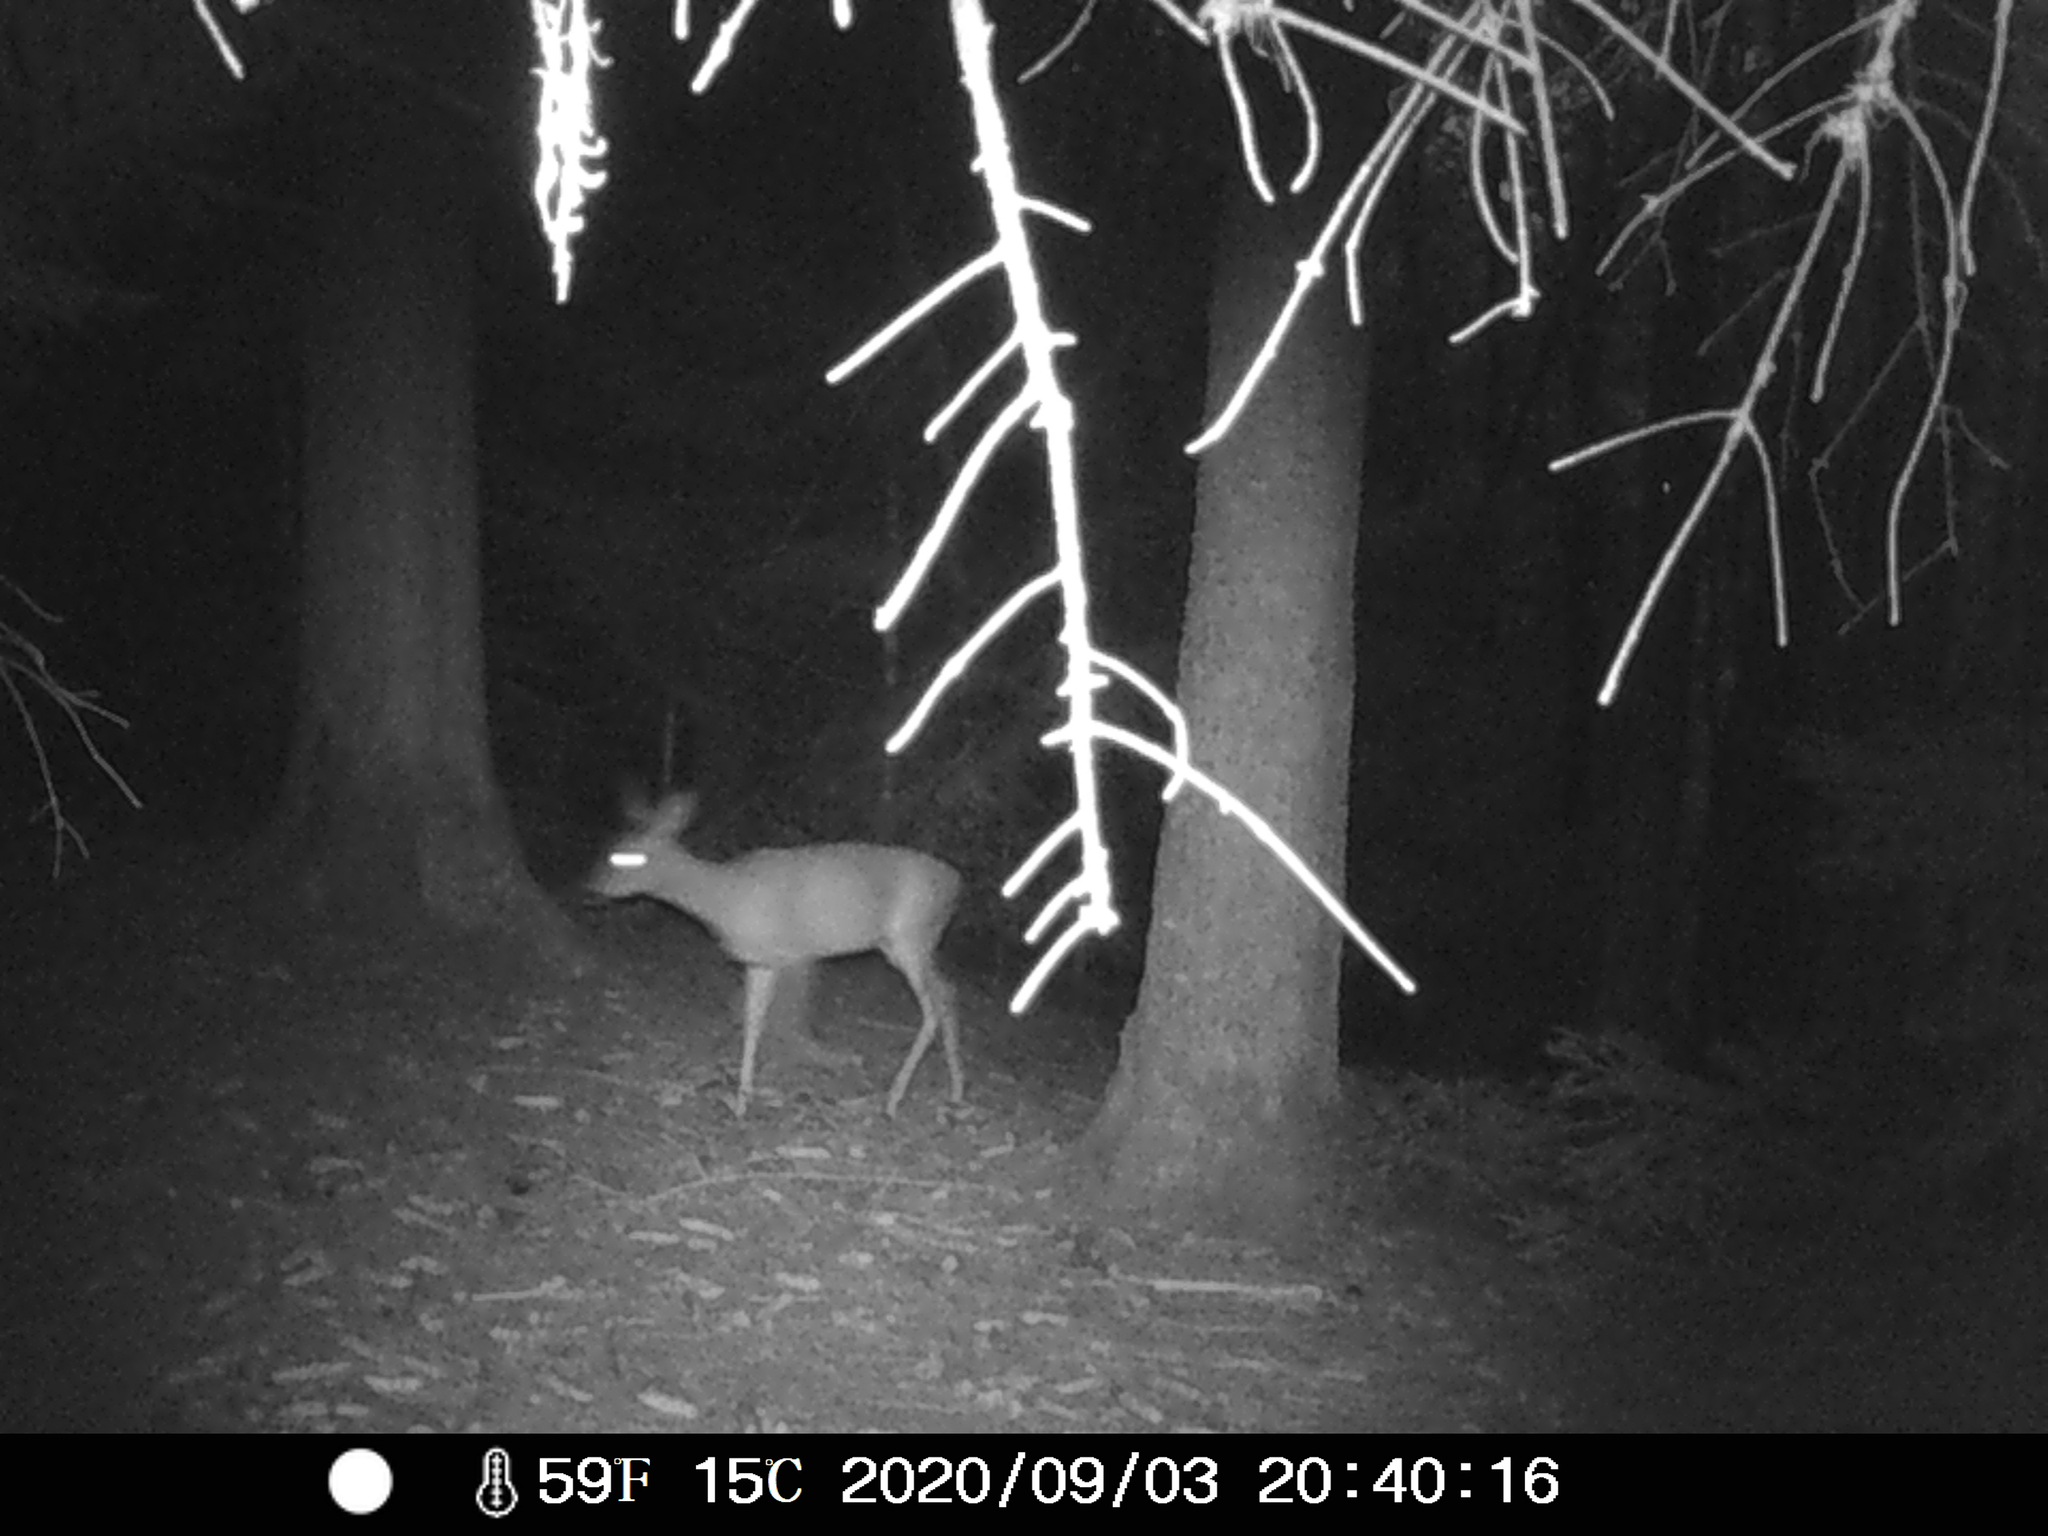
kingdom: Animalia
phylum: Chordata
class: Mammalia
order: Artiodactyla
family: Cervidae
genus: Capreolus
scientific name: Capreolus capreolus
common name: Western roe deer
